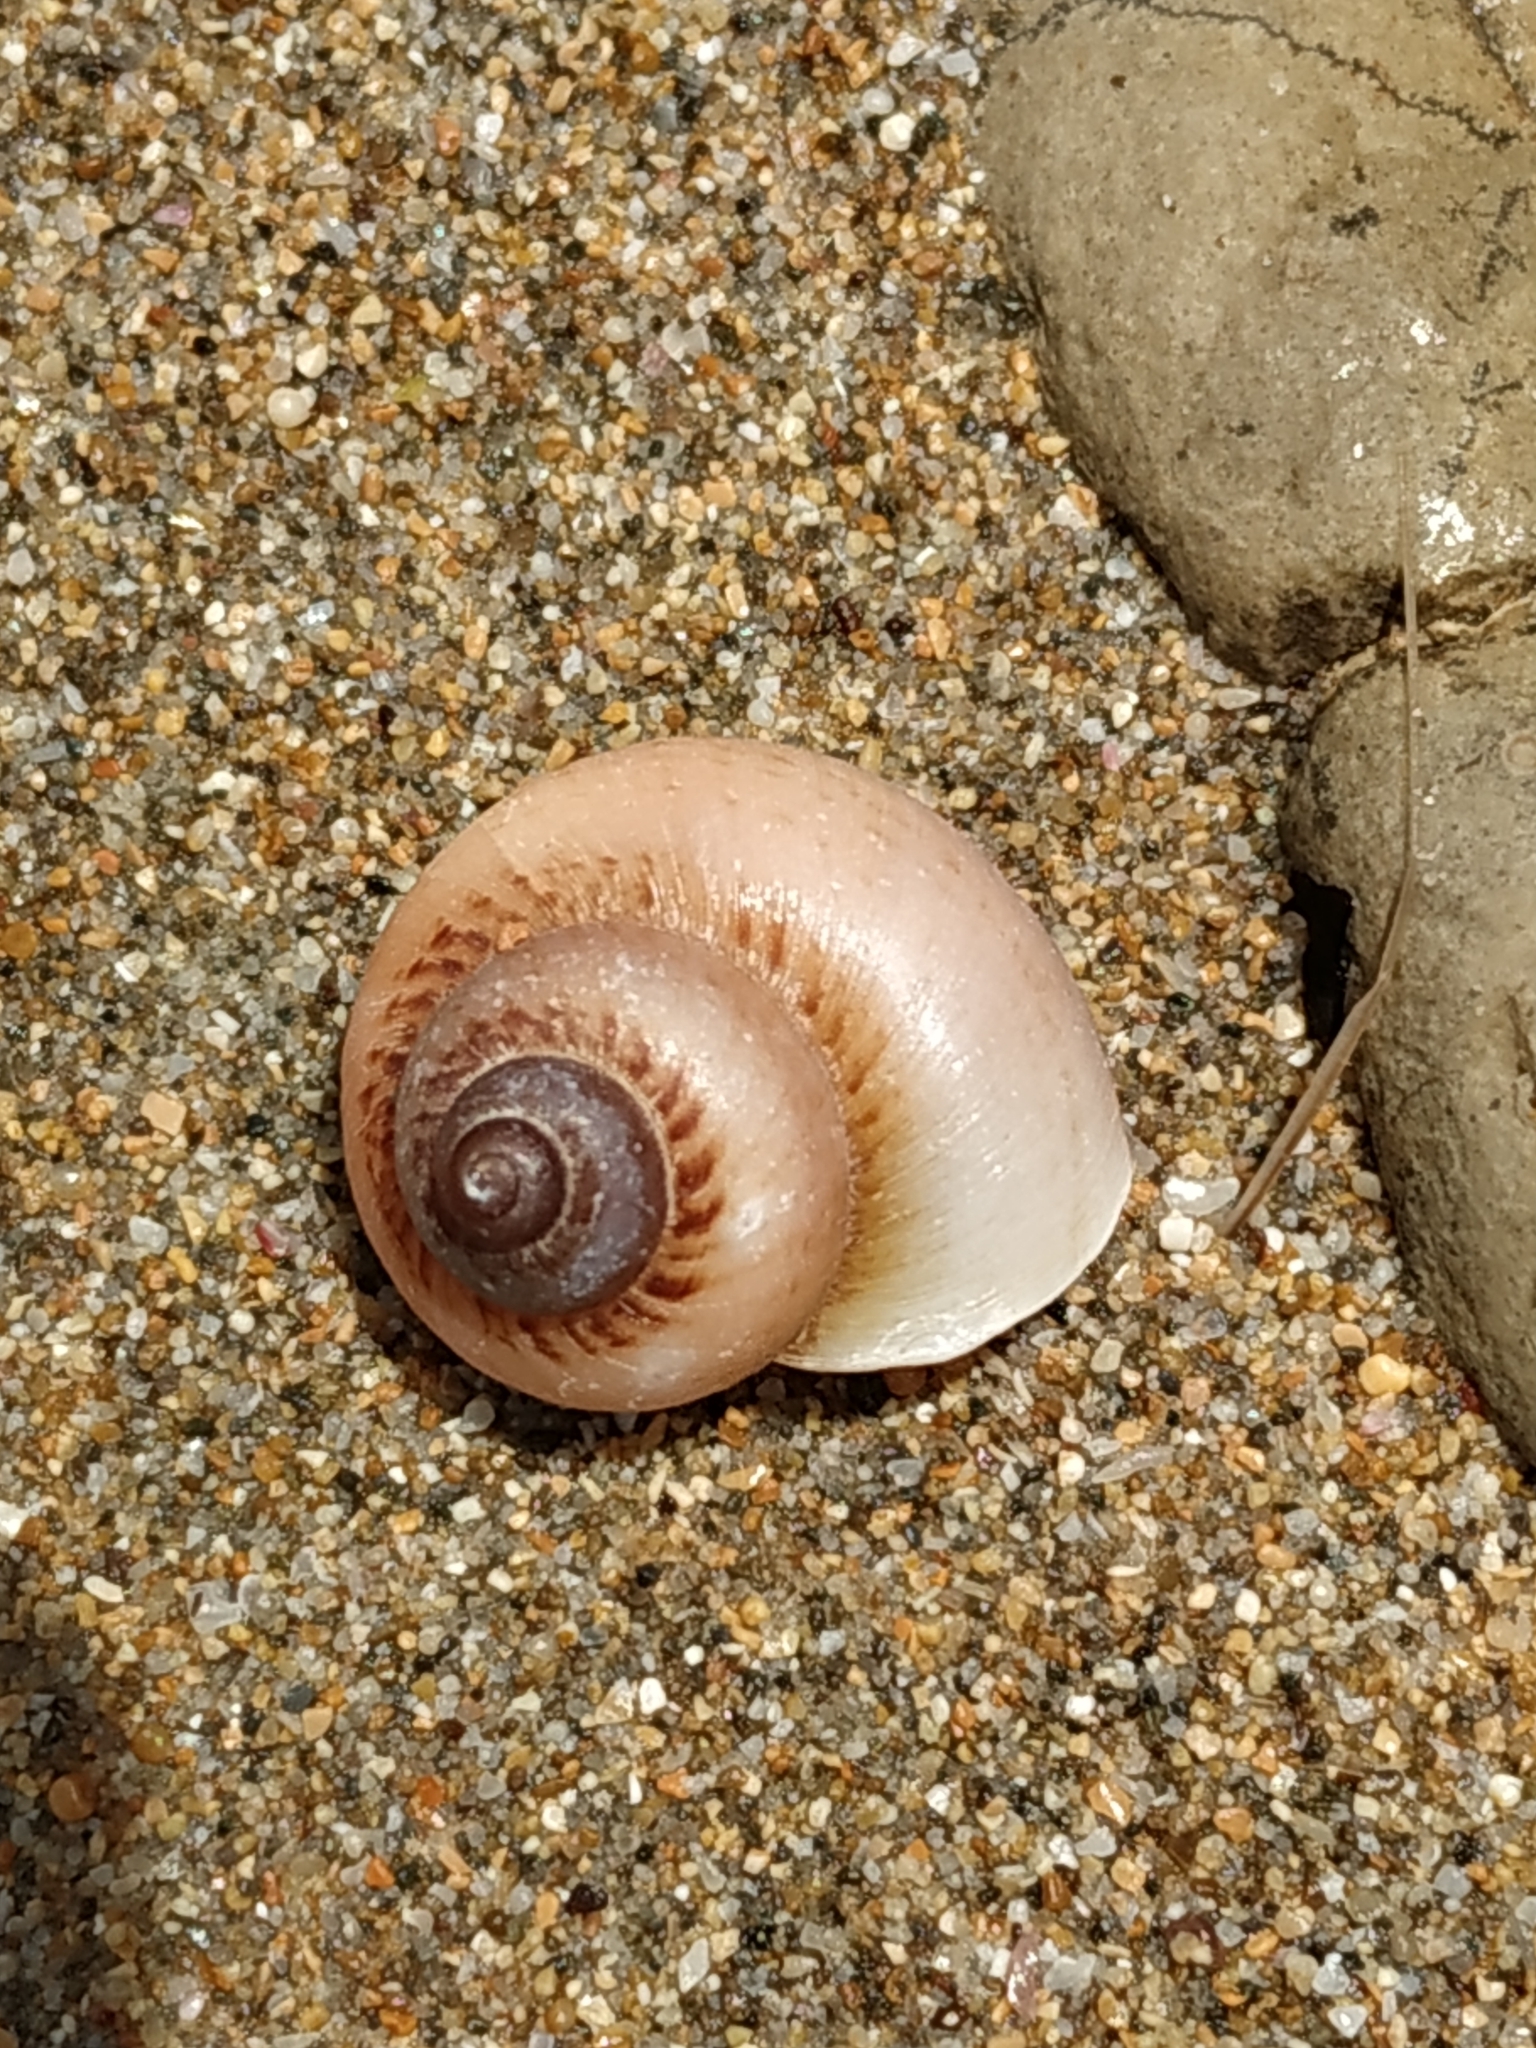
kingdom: Animalia
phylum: Mollusca
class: Gastropoda
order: Architaenioglossa
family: Cyclophoridae
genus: Cyclophorus
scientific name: Cyclophorus moellendorffi
